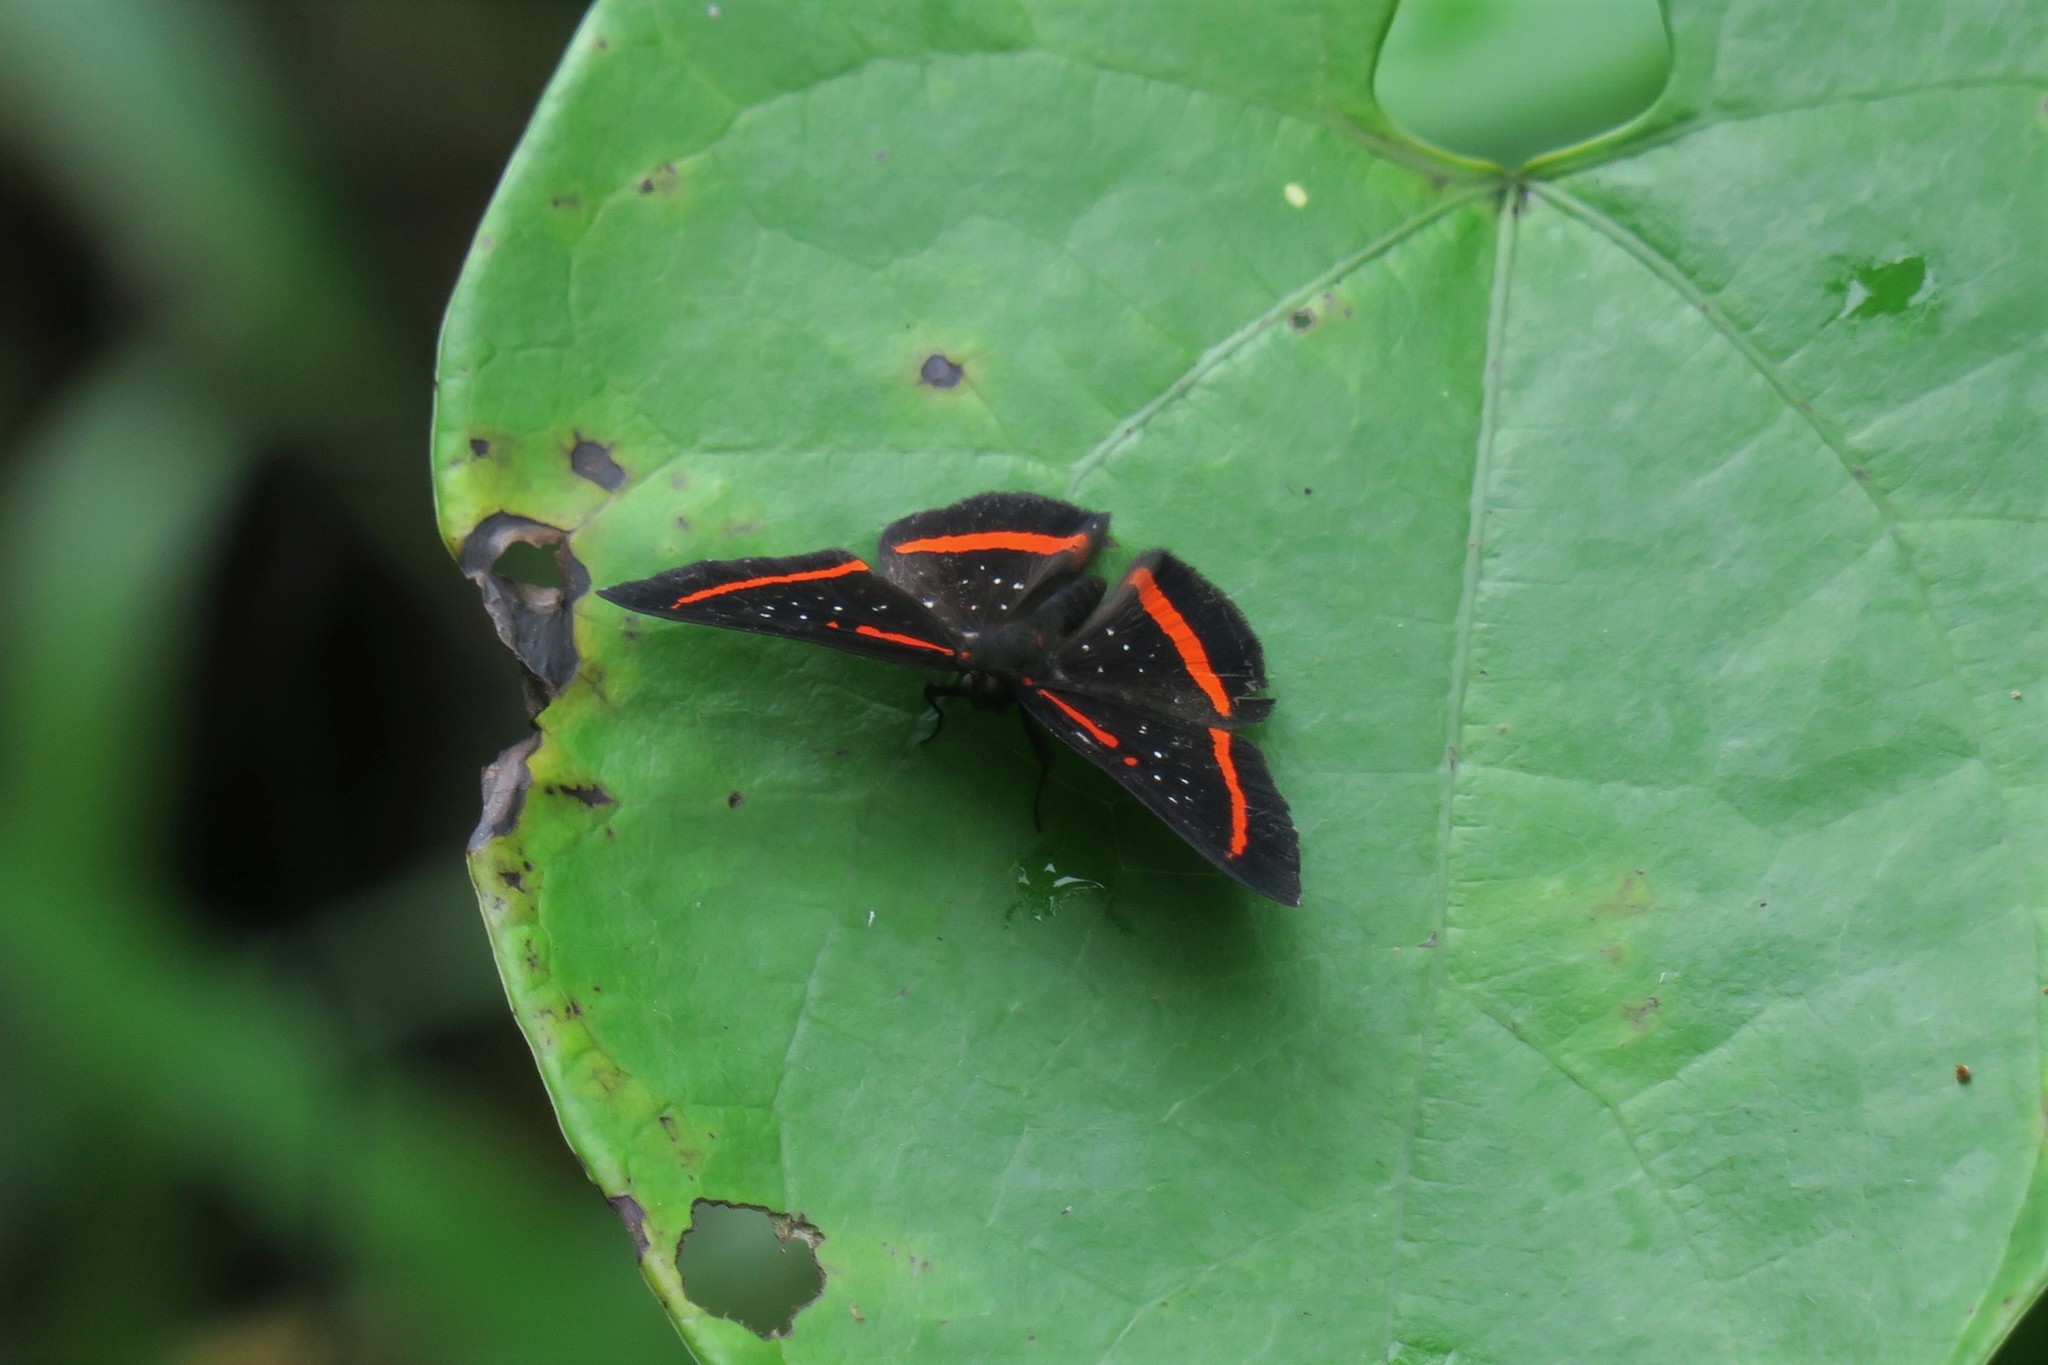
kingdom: Animalia
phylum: Arthropoda
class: Insecta
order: Lepidoptera
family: Riodinidae
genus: Amarynthis
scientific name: Amarynthis meneria
